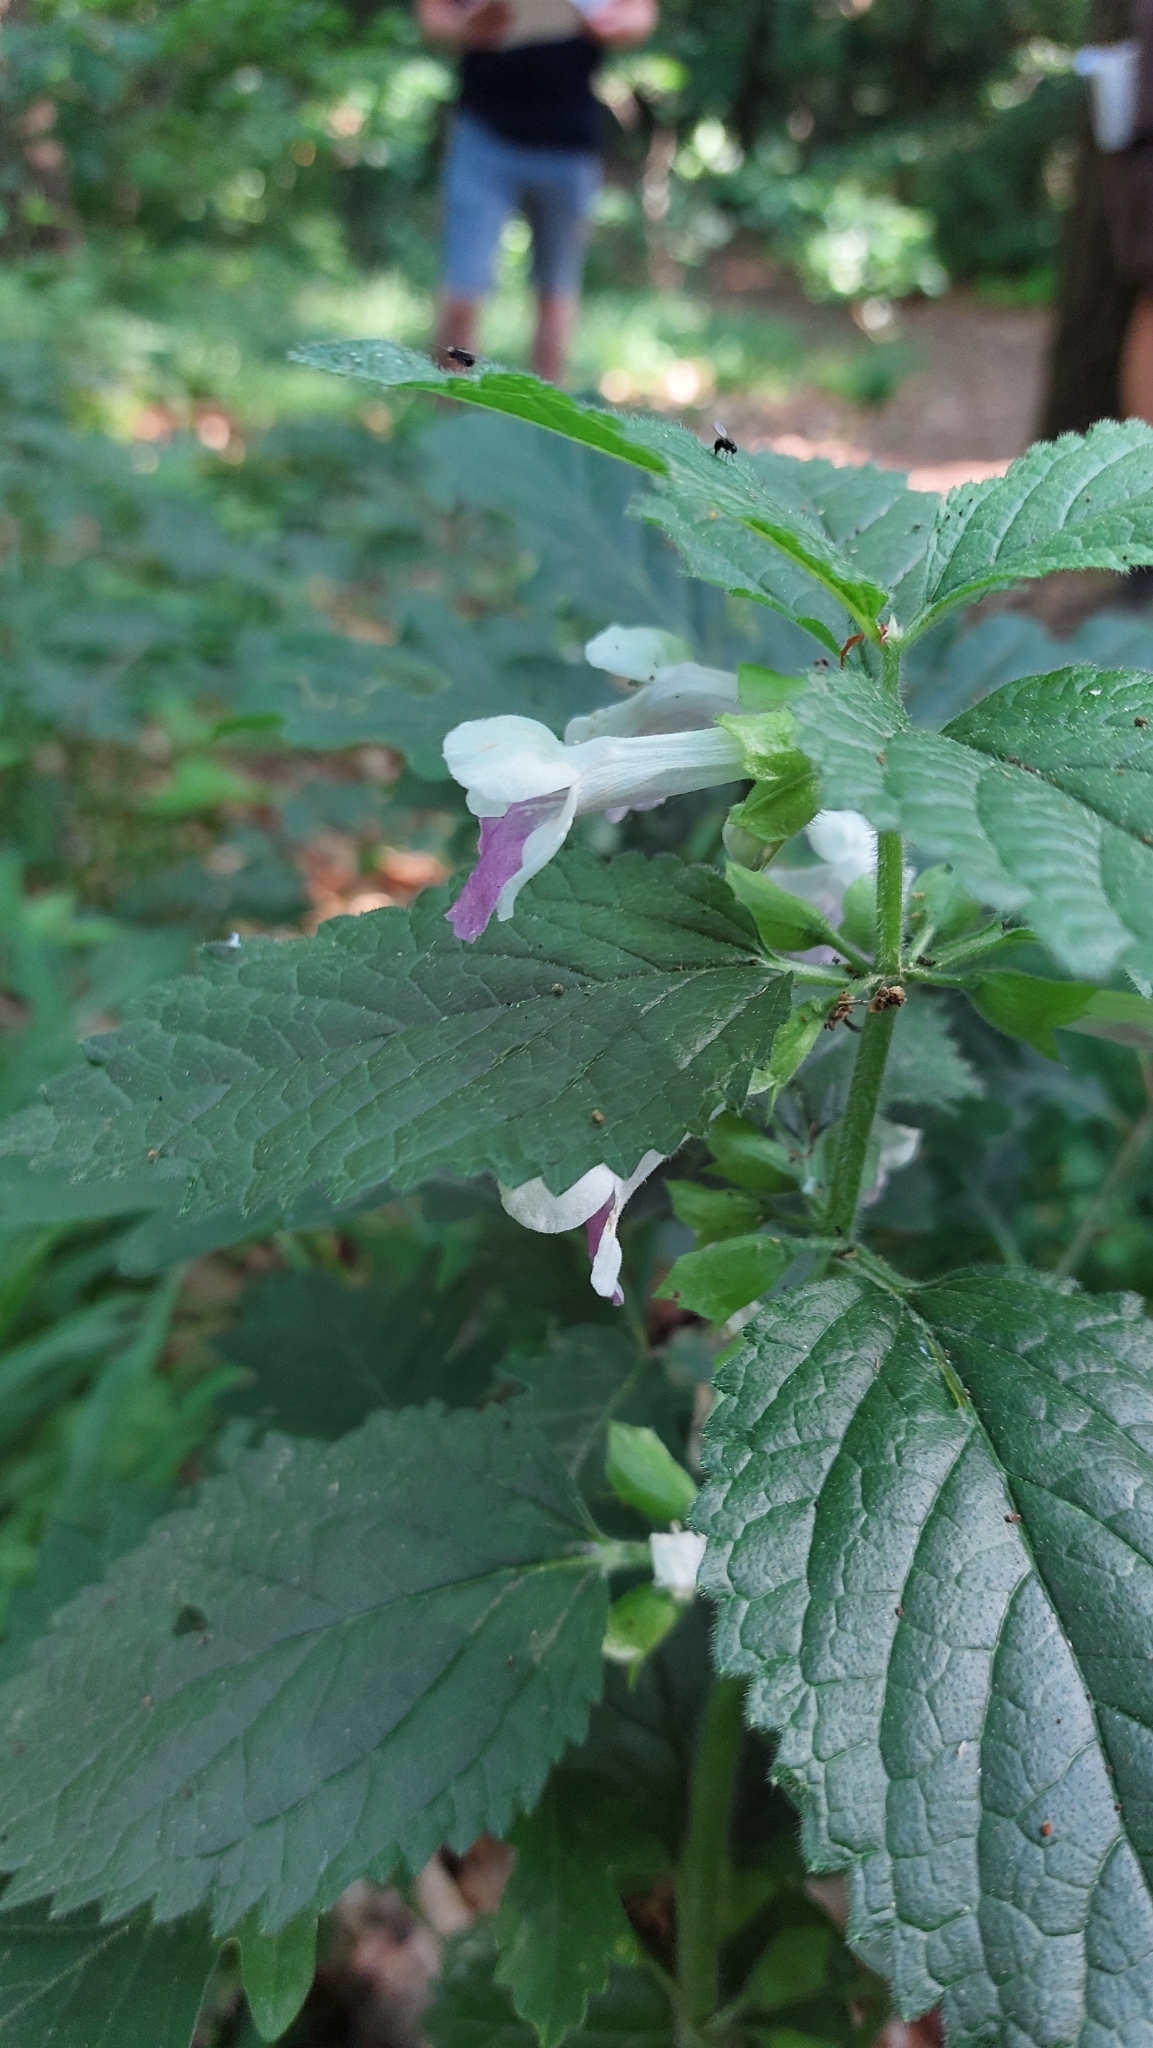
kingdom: Plantae
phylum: Tracheophyta
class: Magnoliopsida
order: Lamiales
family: Lamiaceae
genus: Melittis
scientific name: Melittis melissophyllum
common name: Bastard balm
